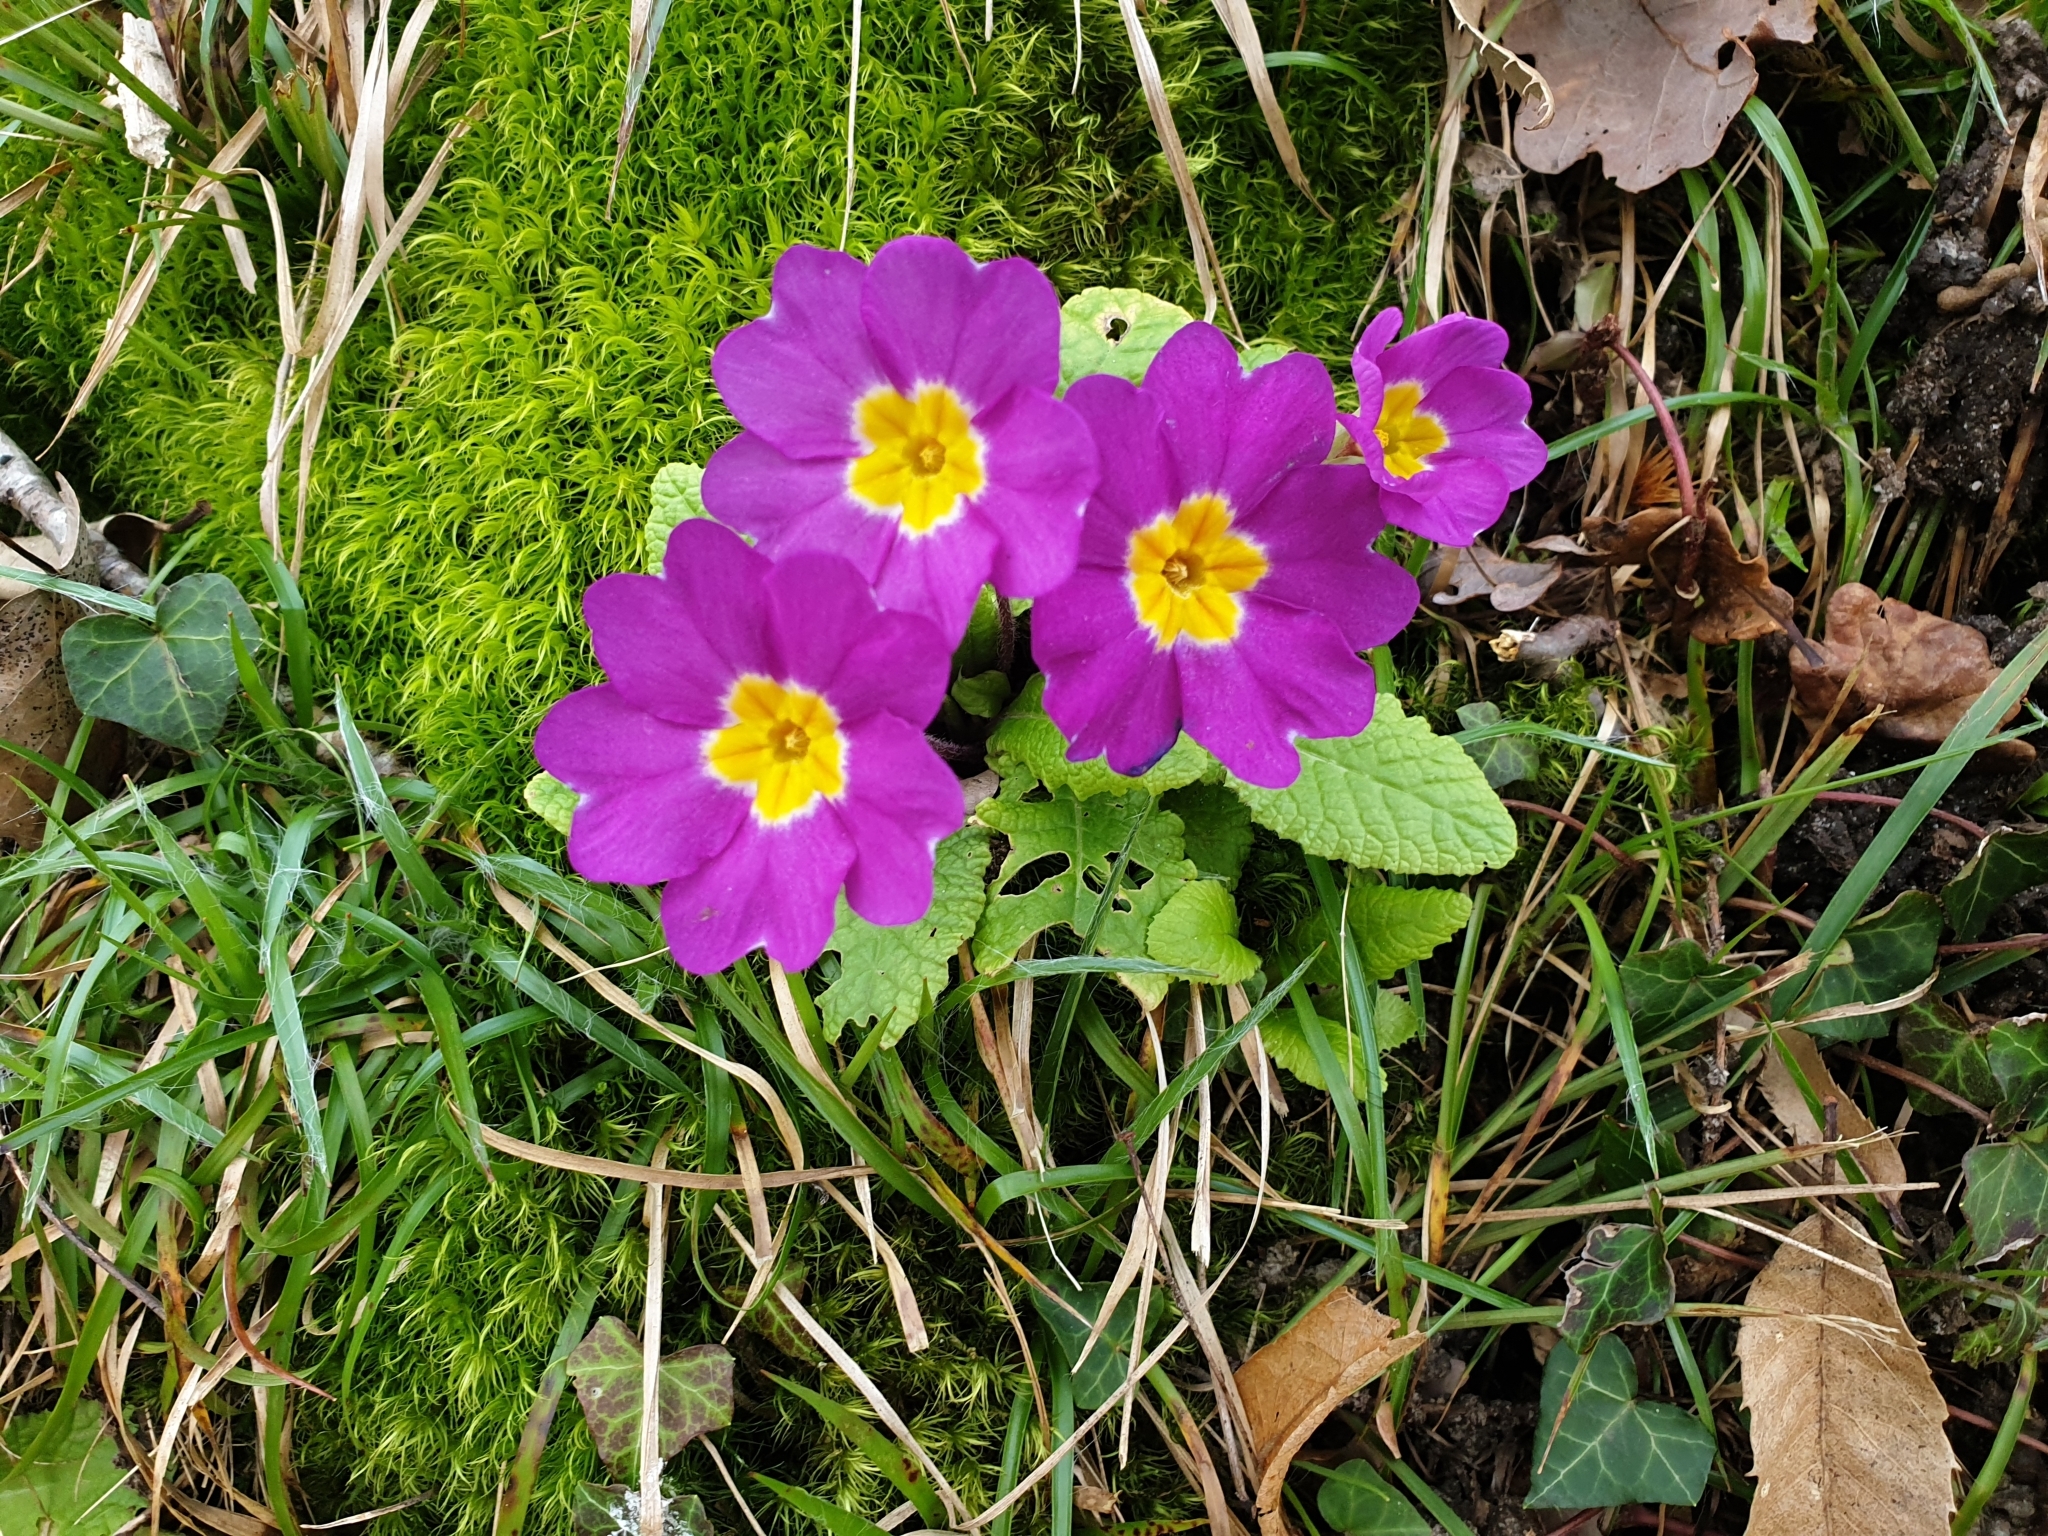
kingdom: Plantae
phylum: Tracheophyta
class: Magnoliopsida
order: Ericales
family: Primulaceae
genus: Primula
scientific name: Primula vulgaris
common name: Primrose
